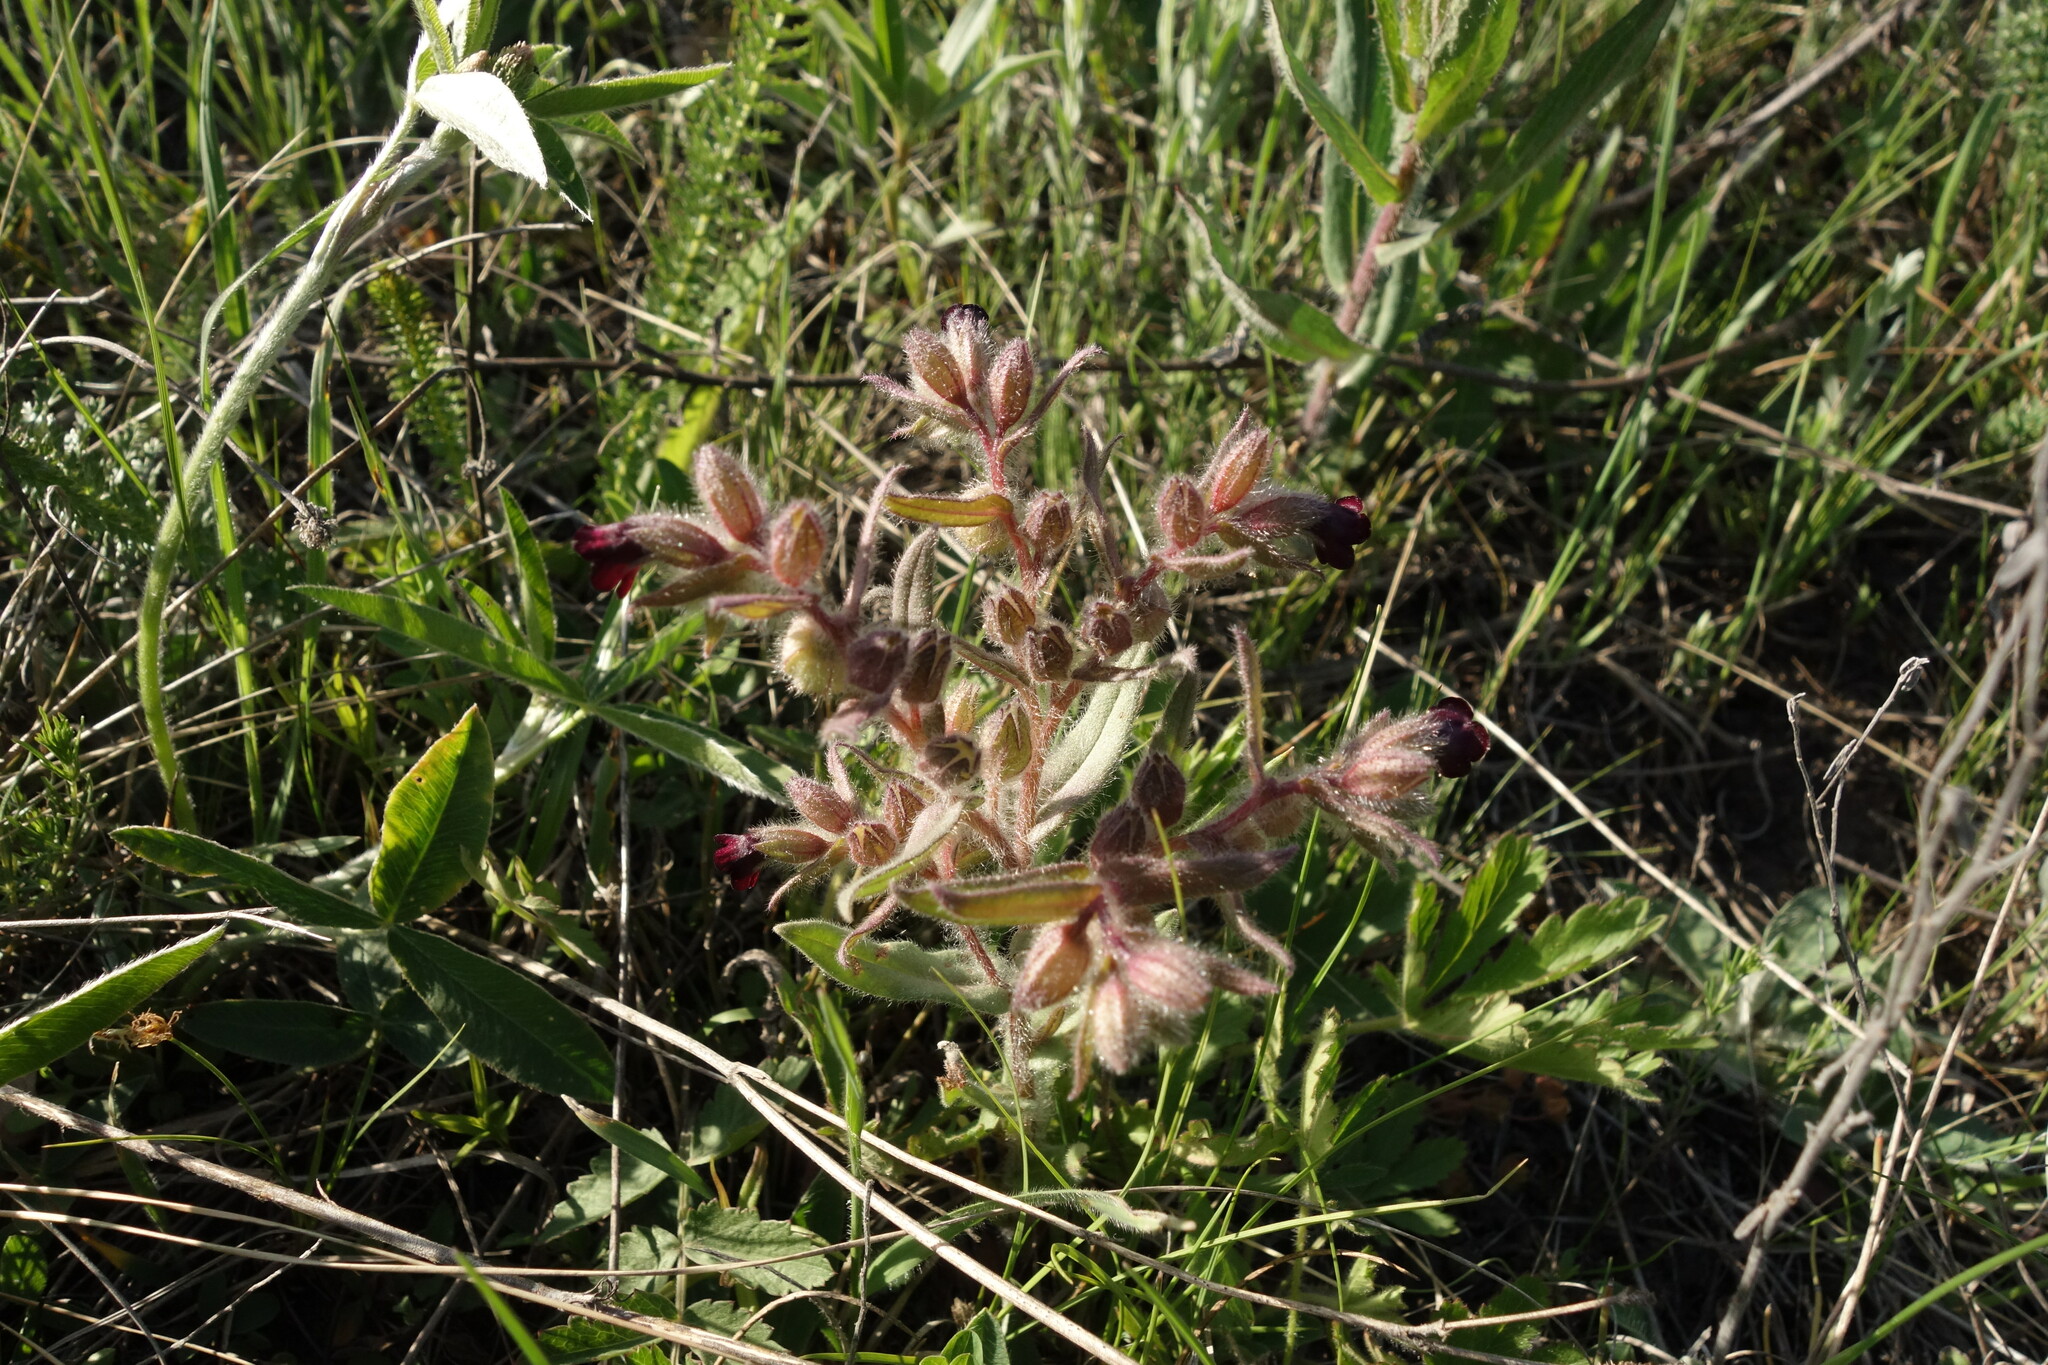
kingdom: Plantae
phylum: Tracheophyta
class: Magnoliopsida
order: Boraginales
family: Boraginaceae
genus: Nonea
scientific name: Nonea pulla
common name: Brown nonea
